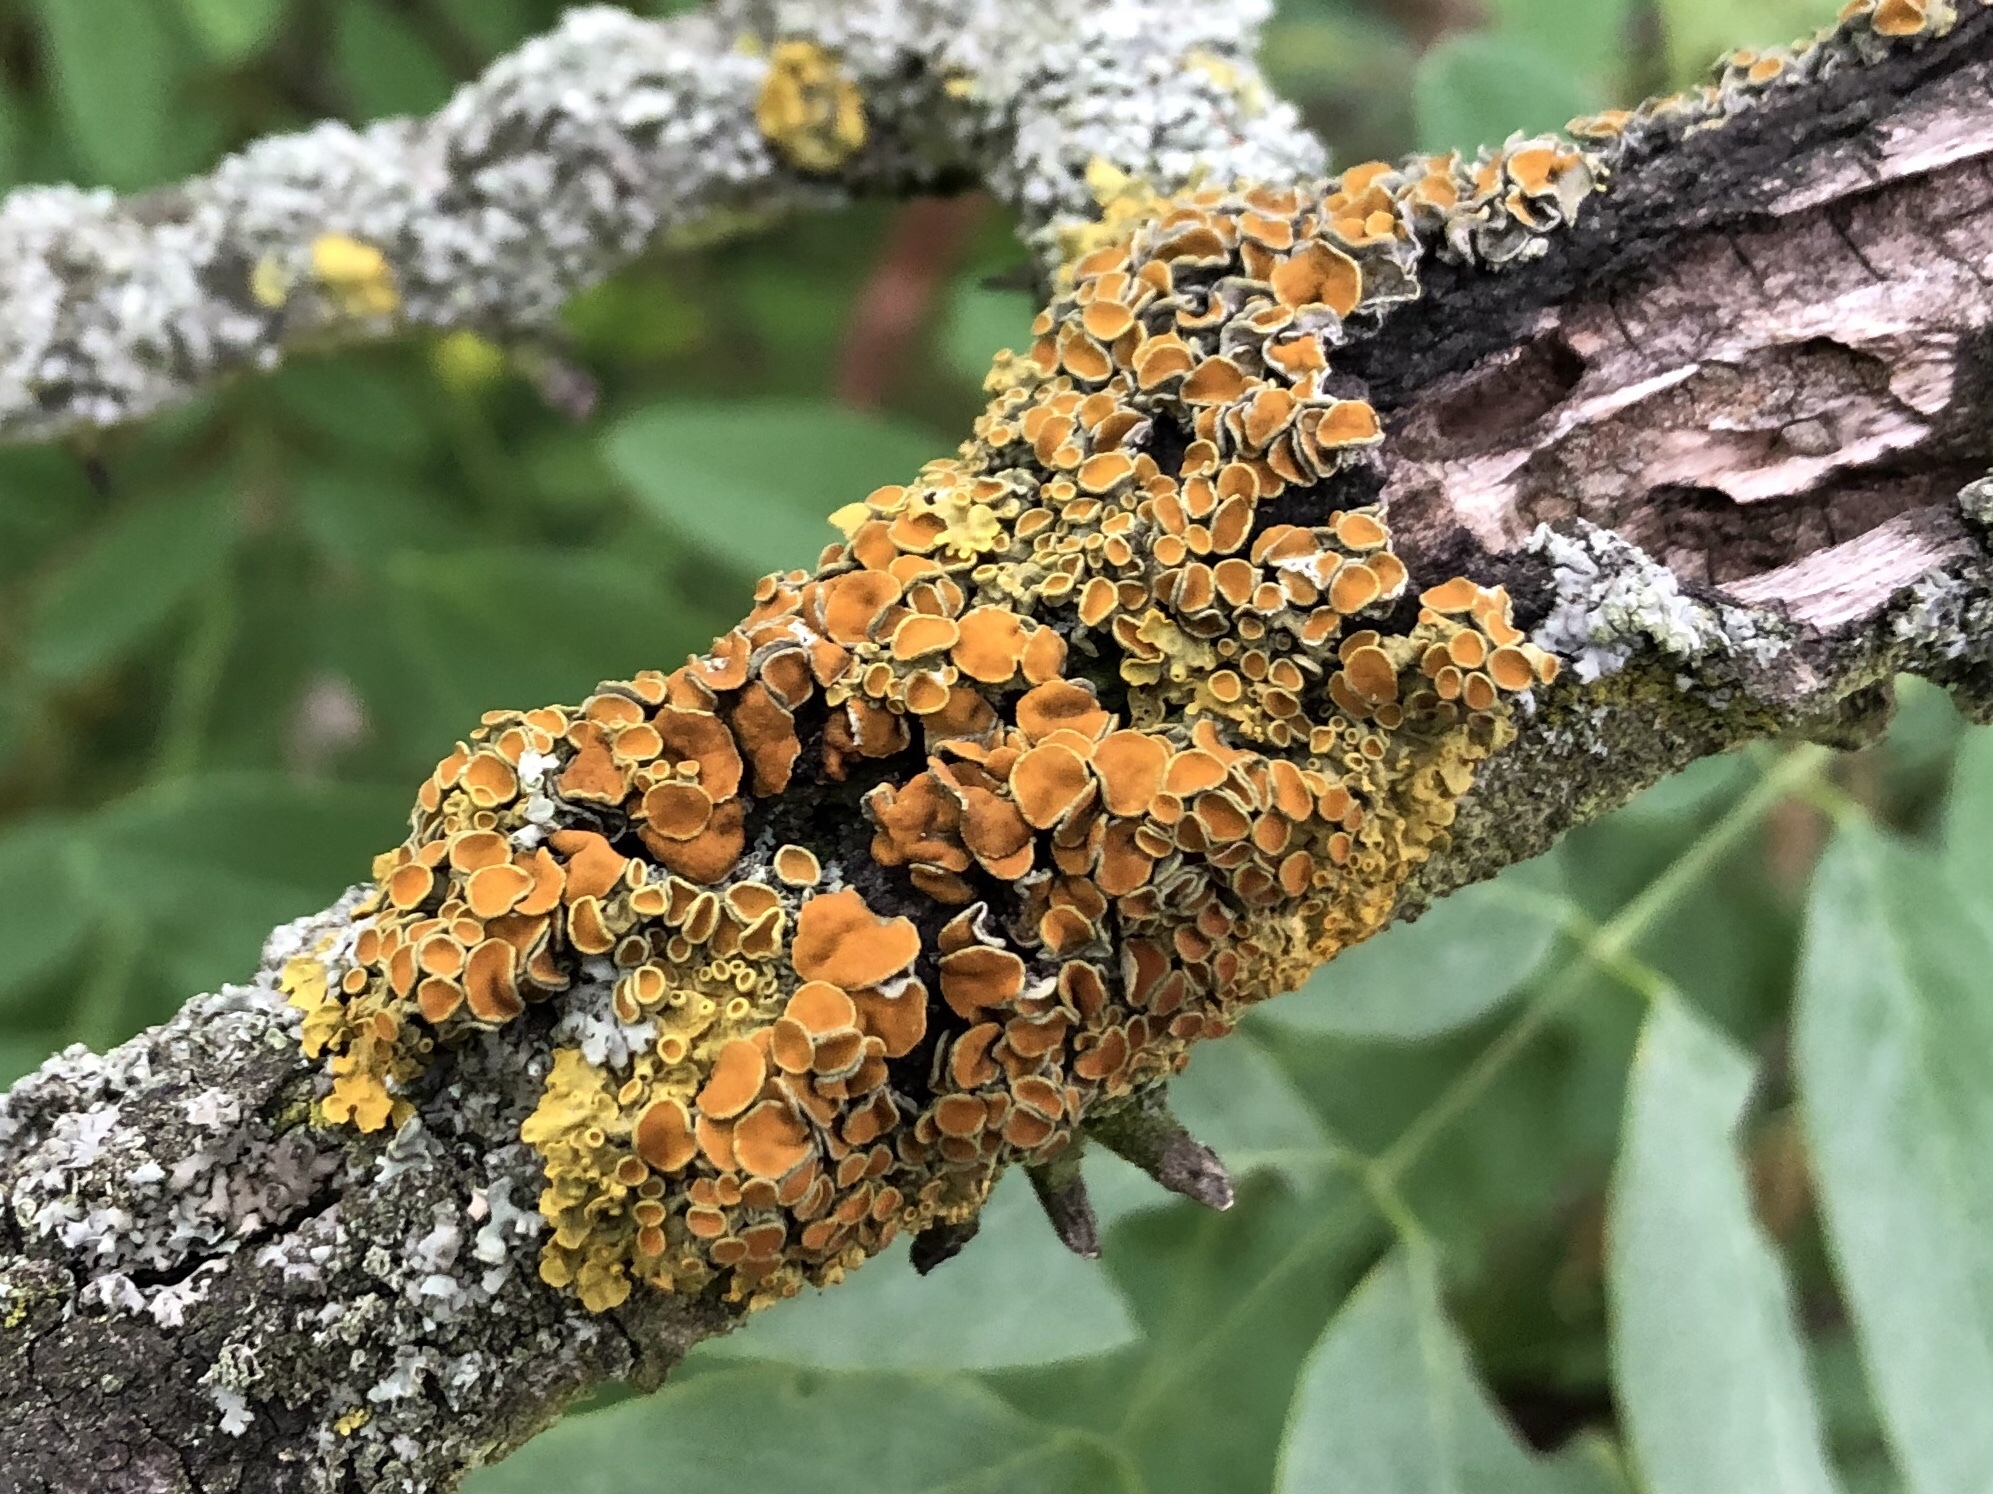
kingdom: Fungi
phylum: Ascomycota
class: Lecanoromycetes
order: Teloschistales
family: Teloschistaceae
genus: Xanthoria
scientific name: Xanthoria parietina
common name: Common orange lichen
